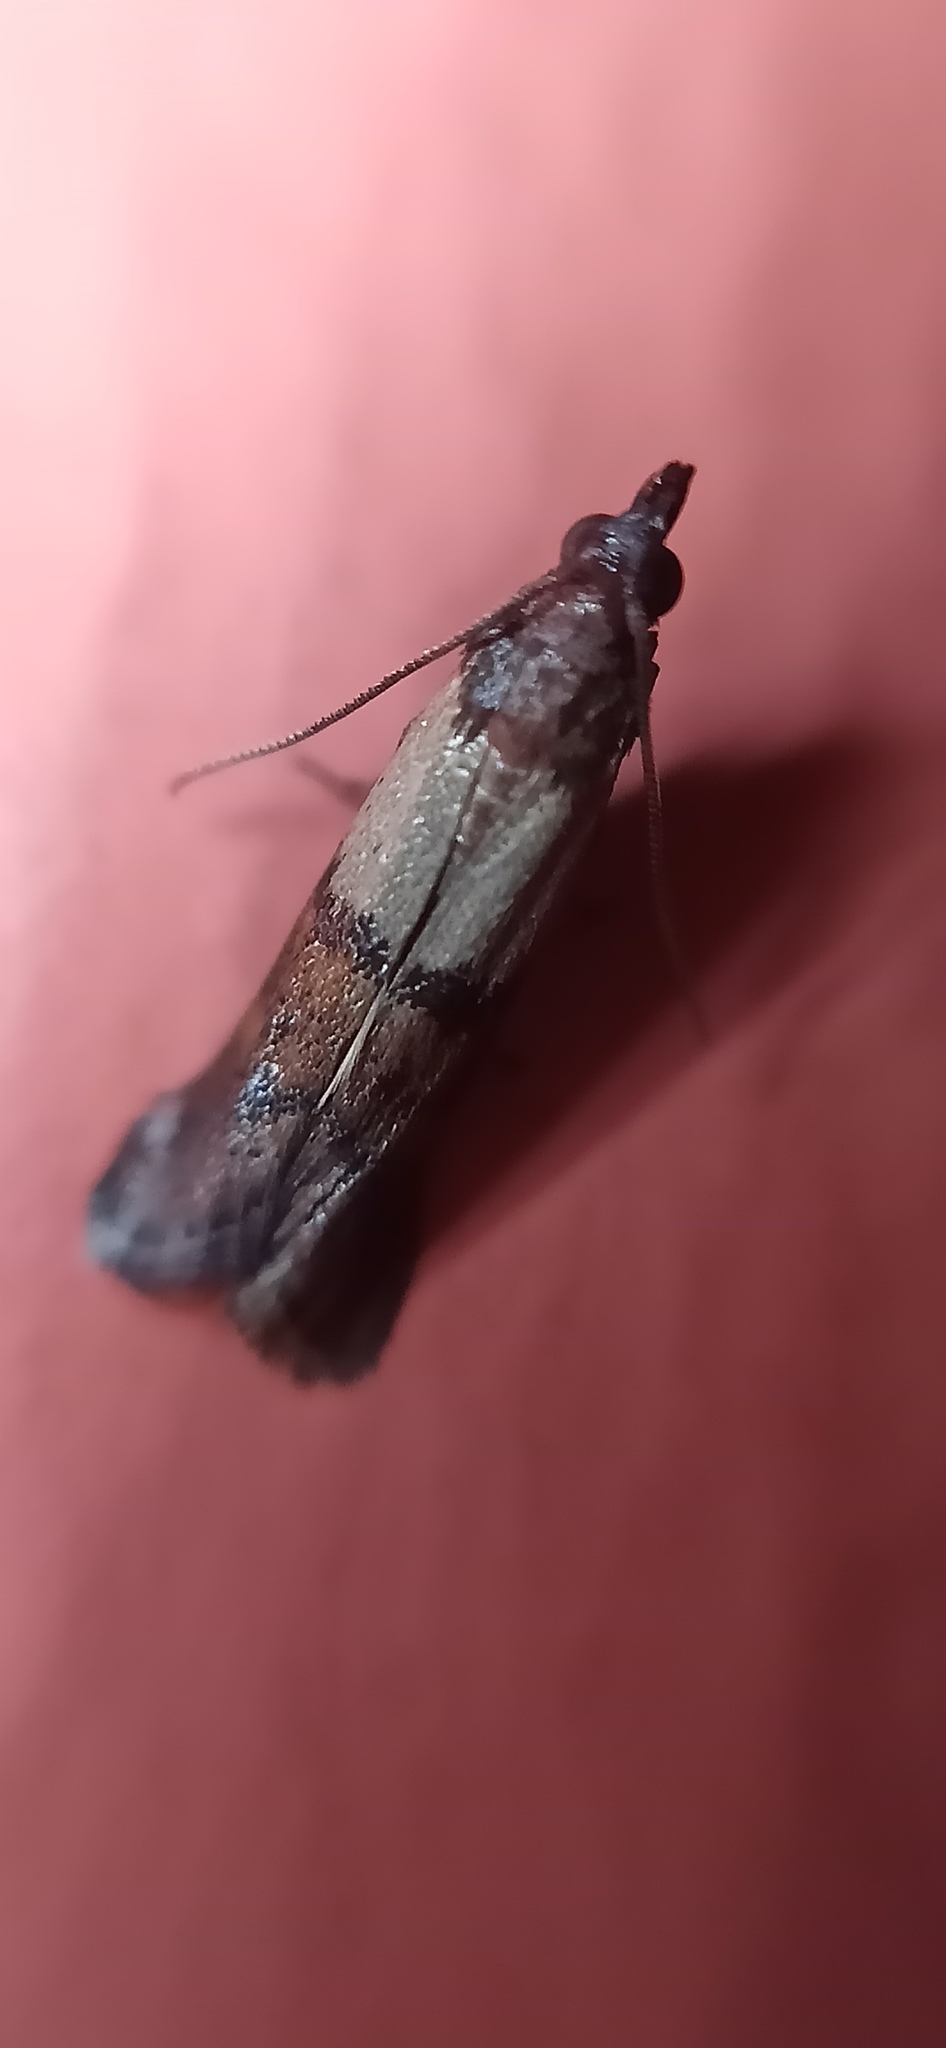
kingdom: Animalia
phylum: Arthropoda
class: Insecta
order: Lepidoptera
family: Pyralidae
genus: Plodia
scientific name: Plodia interpunctella
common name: Indian meal moth
